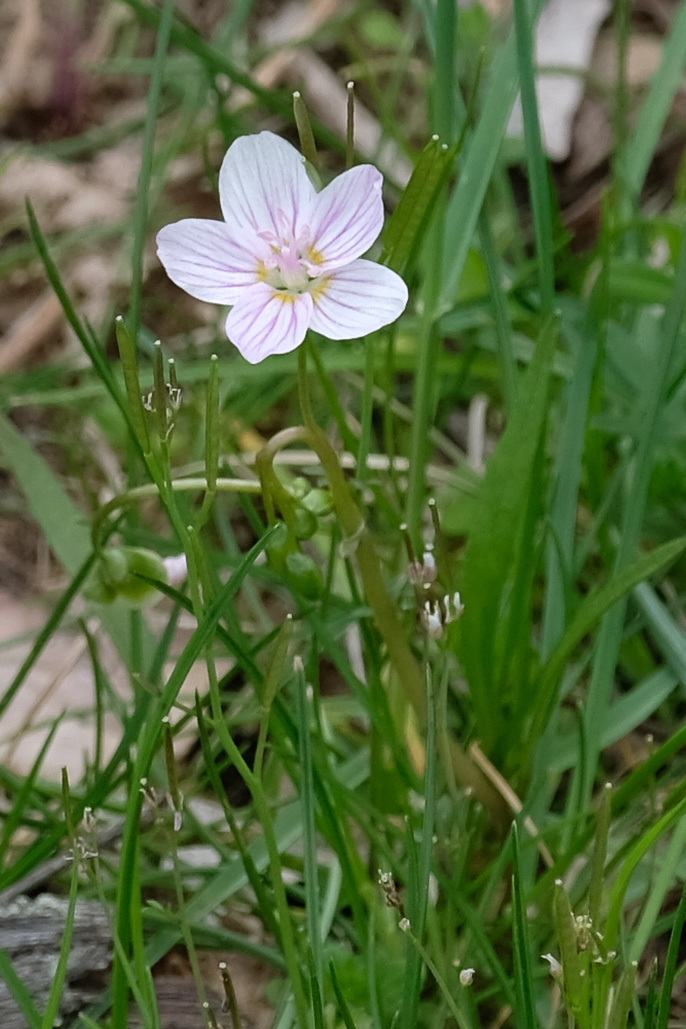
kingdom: Plantae
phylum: Tracheophyta
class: Magnoliopsida
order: Caryophyllales
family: Montiaceae
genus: Claytonia
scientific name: Claytonia virginica
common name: Virginia springbeauty
